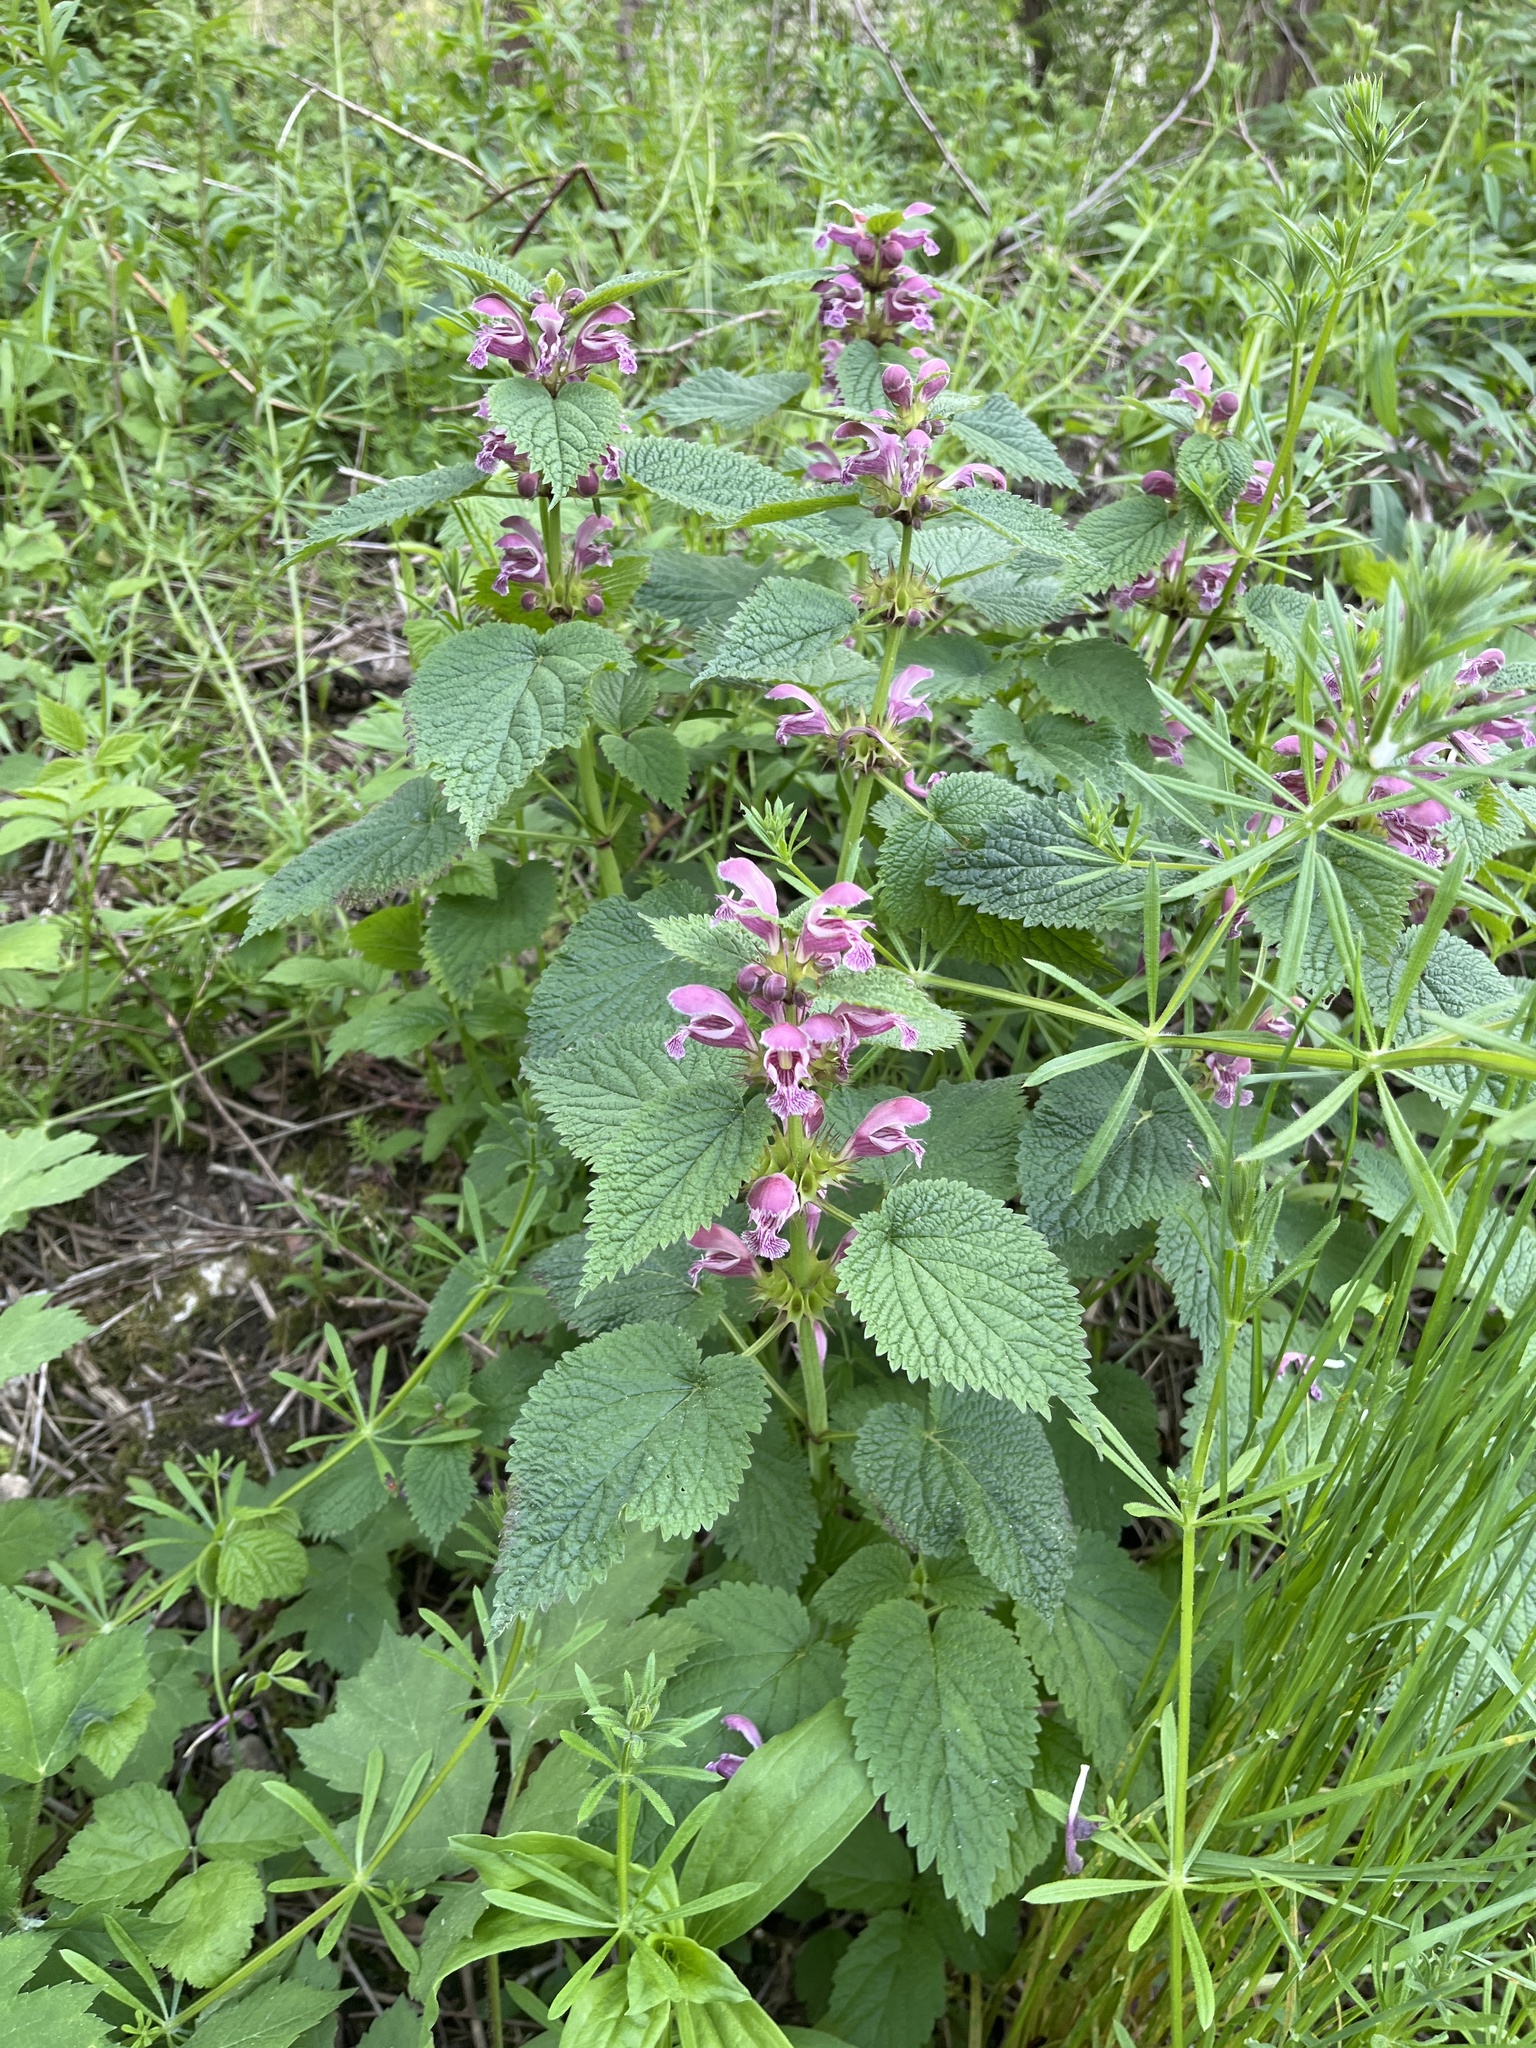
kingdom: Plantae
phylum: Tracheophyta
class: Magnoliopsida
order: Lamiales
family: Lamiaceae
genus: Lamium
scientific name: Lamium orvala
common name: Balm-leaved archangel
